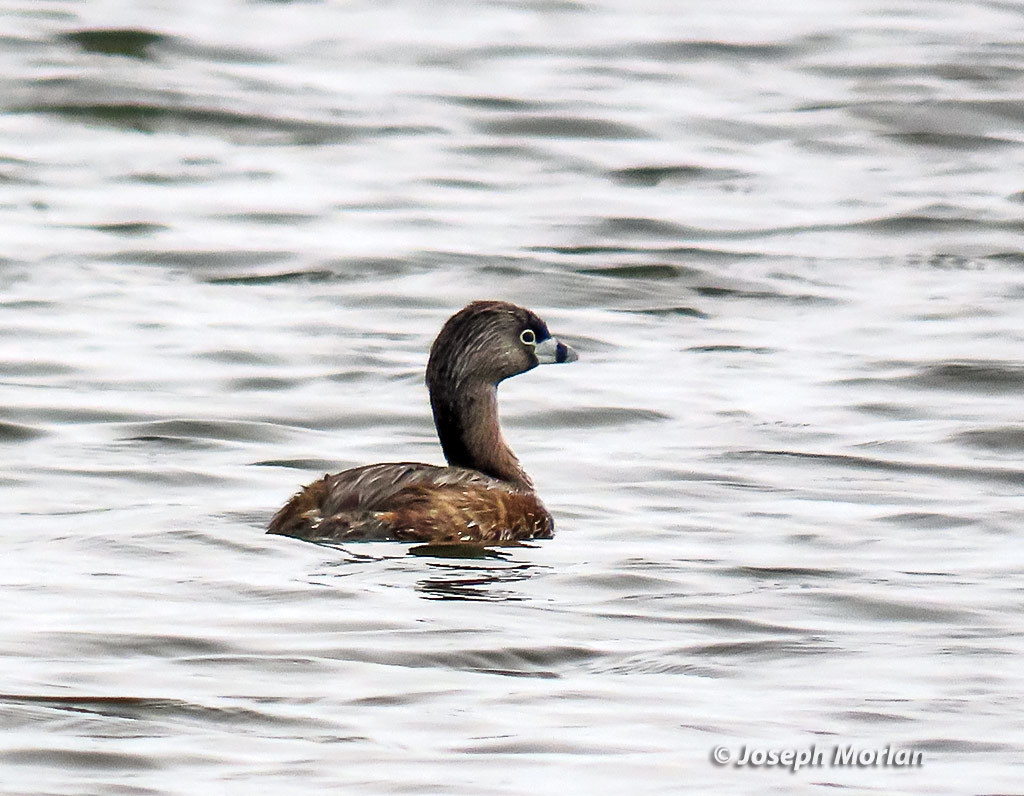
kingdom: Animalia
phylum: Chordata
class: Aves
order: Podicipediformes
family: Podicipedidae
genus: Podilymbus
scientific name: Podilymbus podiceps
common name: Pied-billed grebe
